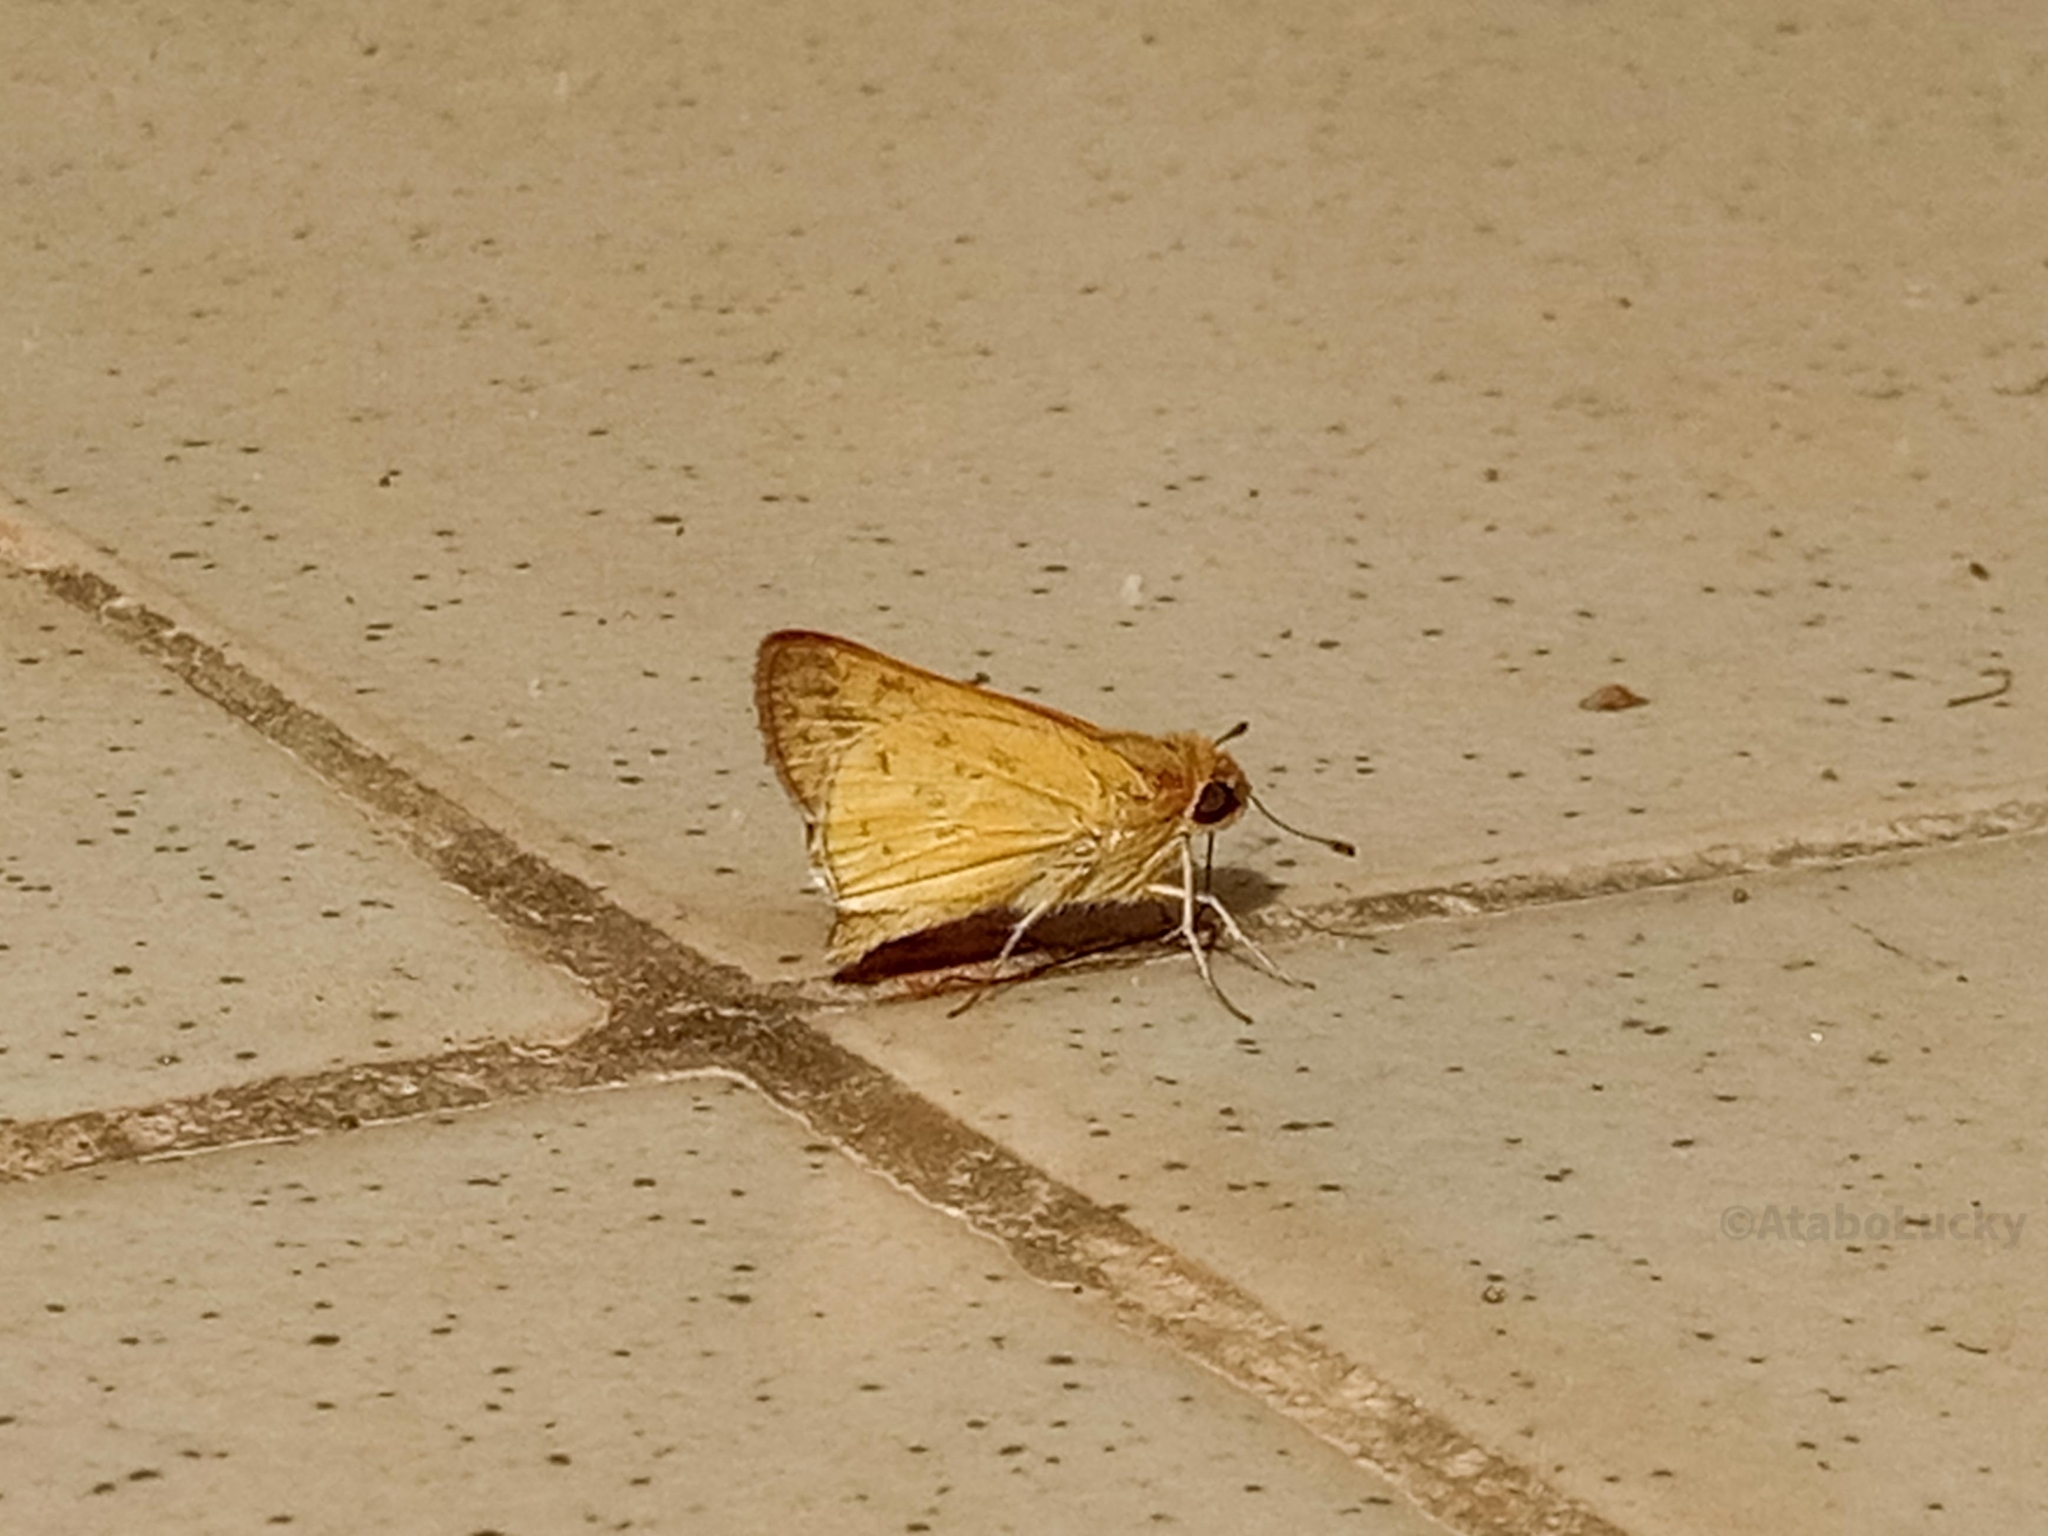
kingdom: Animalia
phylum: Arthropoda
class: Insecta
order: Lepidoptera
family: Hesperiidae
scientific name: Hesperiidae
